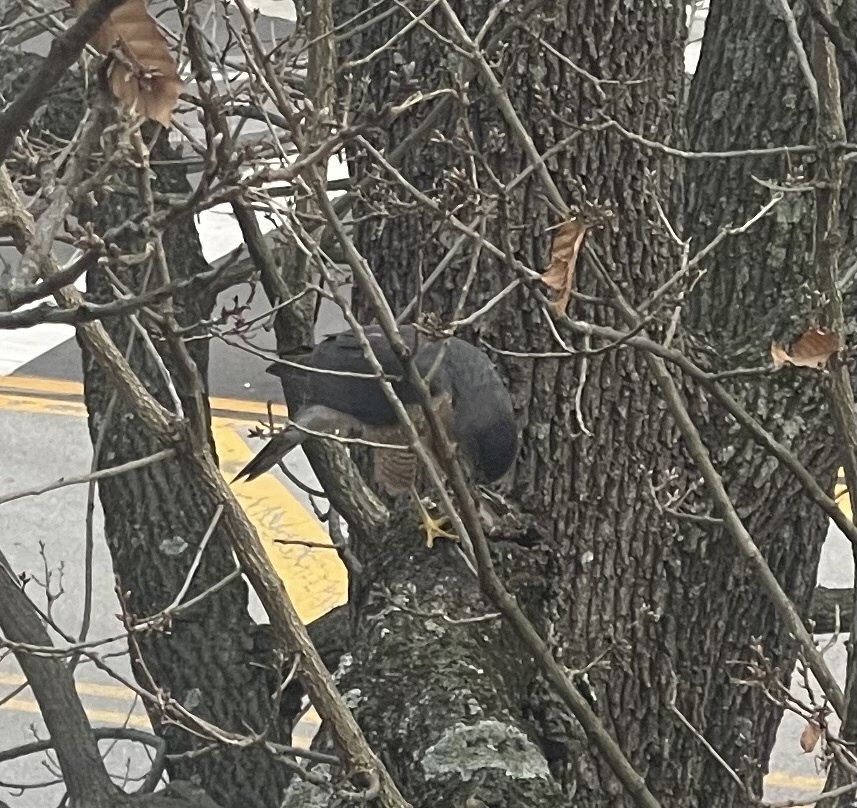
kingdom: Animalia
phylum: Chordata
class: Aves
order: Accipitriformes
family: Accipitridae
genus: Accipiter
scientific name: Accipiter cooperii
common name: Cooper's hawk
